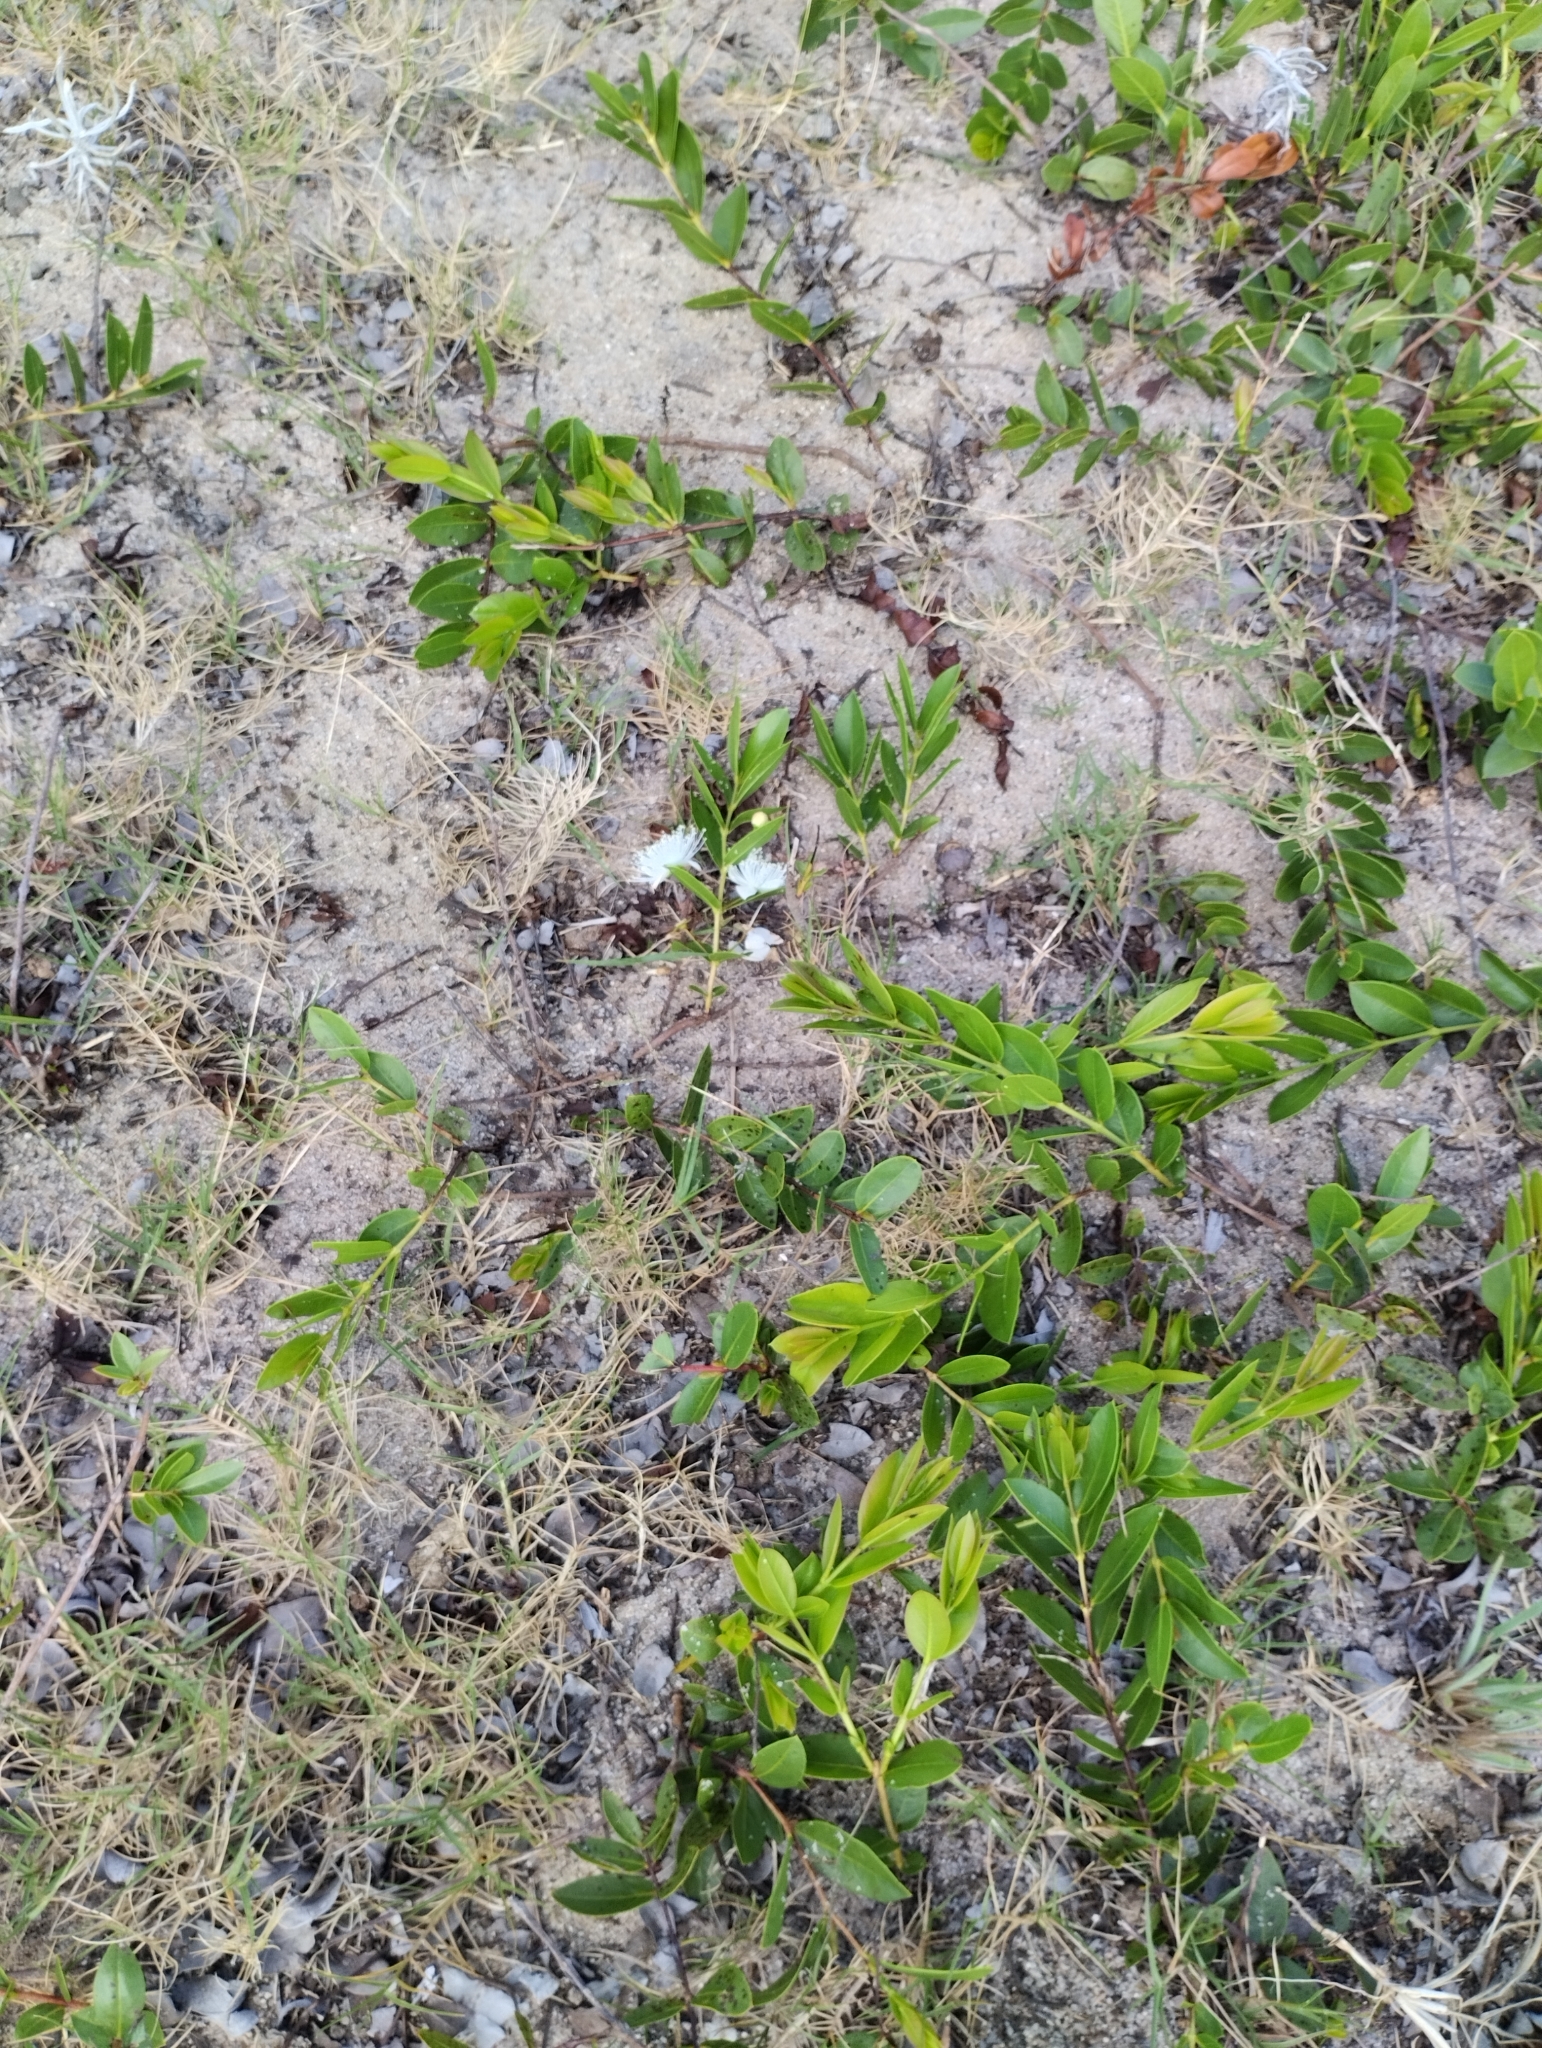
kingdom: Plantae
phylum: Tracheophyta
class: Magnoliopsida
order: Myrtales
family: Myrtaceae
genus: Psidium
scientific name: Psidium salutare
